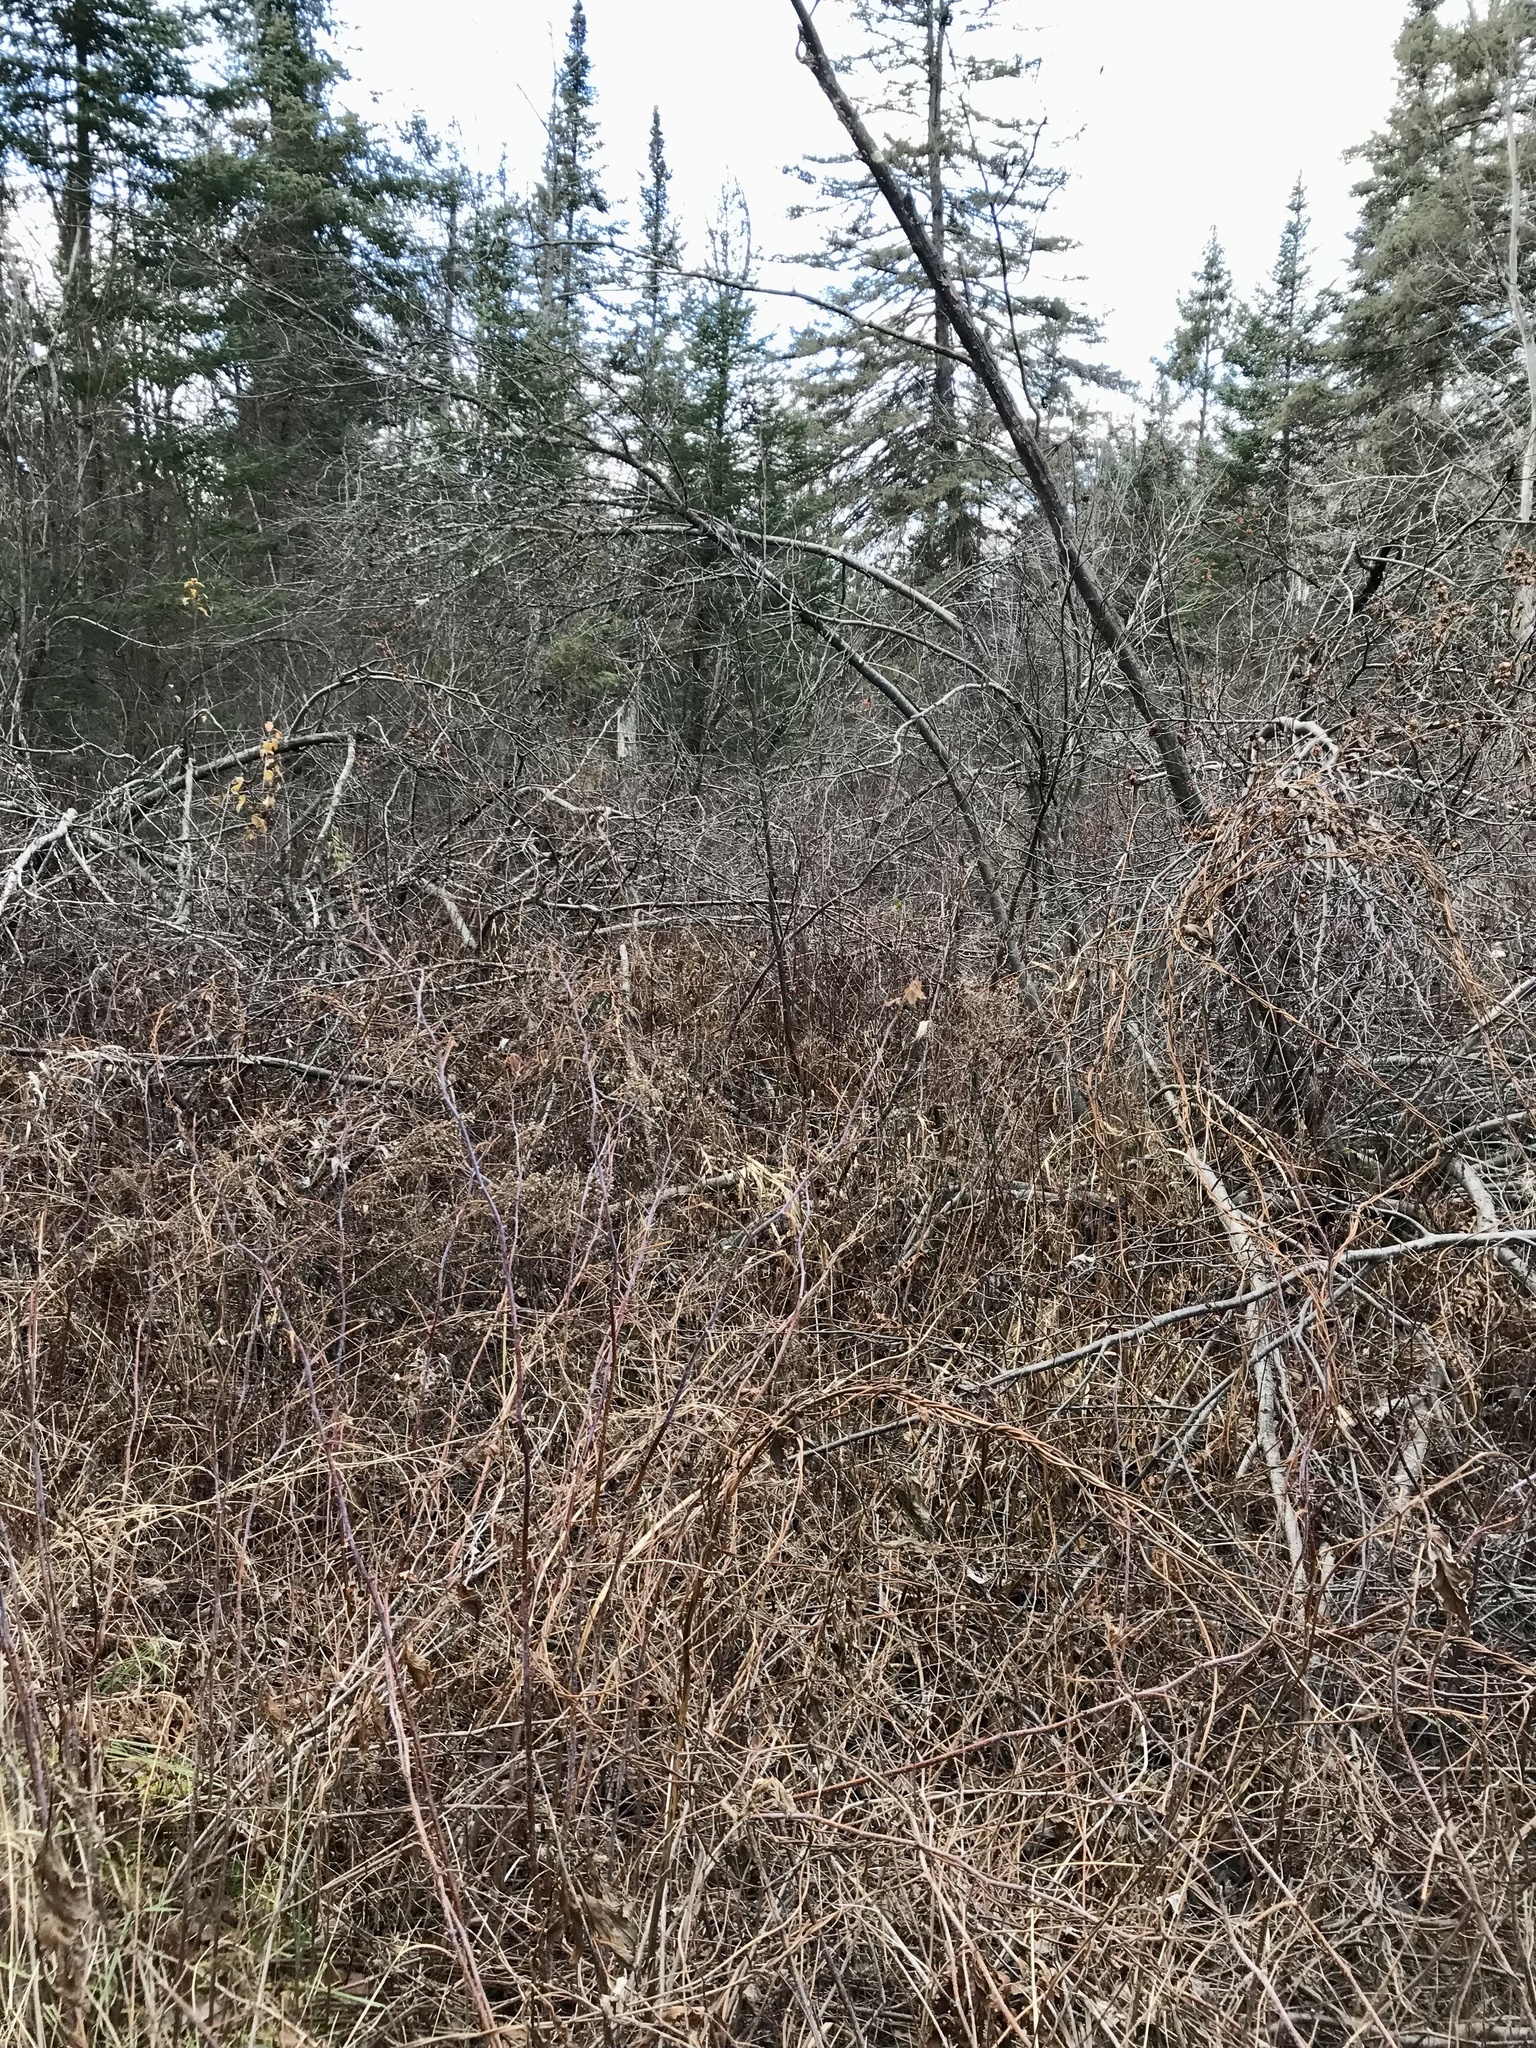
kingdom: Plantae
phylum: Tracheophyta
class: Magnoliopsida
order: Rosales
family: Cannabaceae
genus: Humulus
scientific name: Humulus lupulus
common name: Hop
